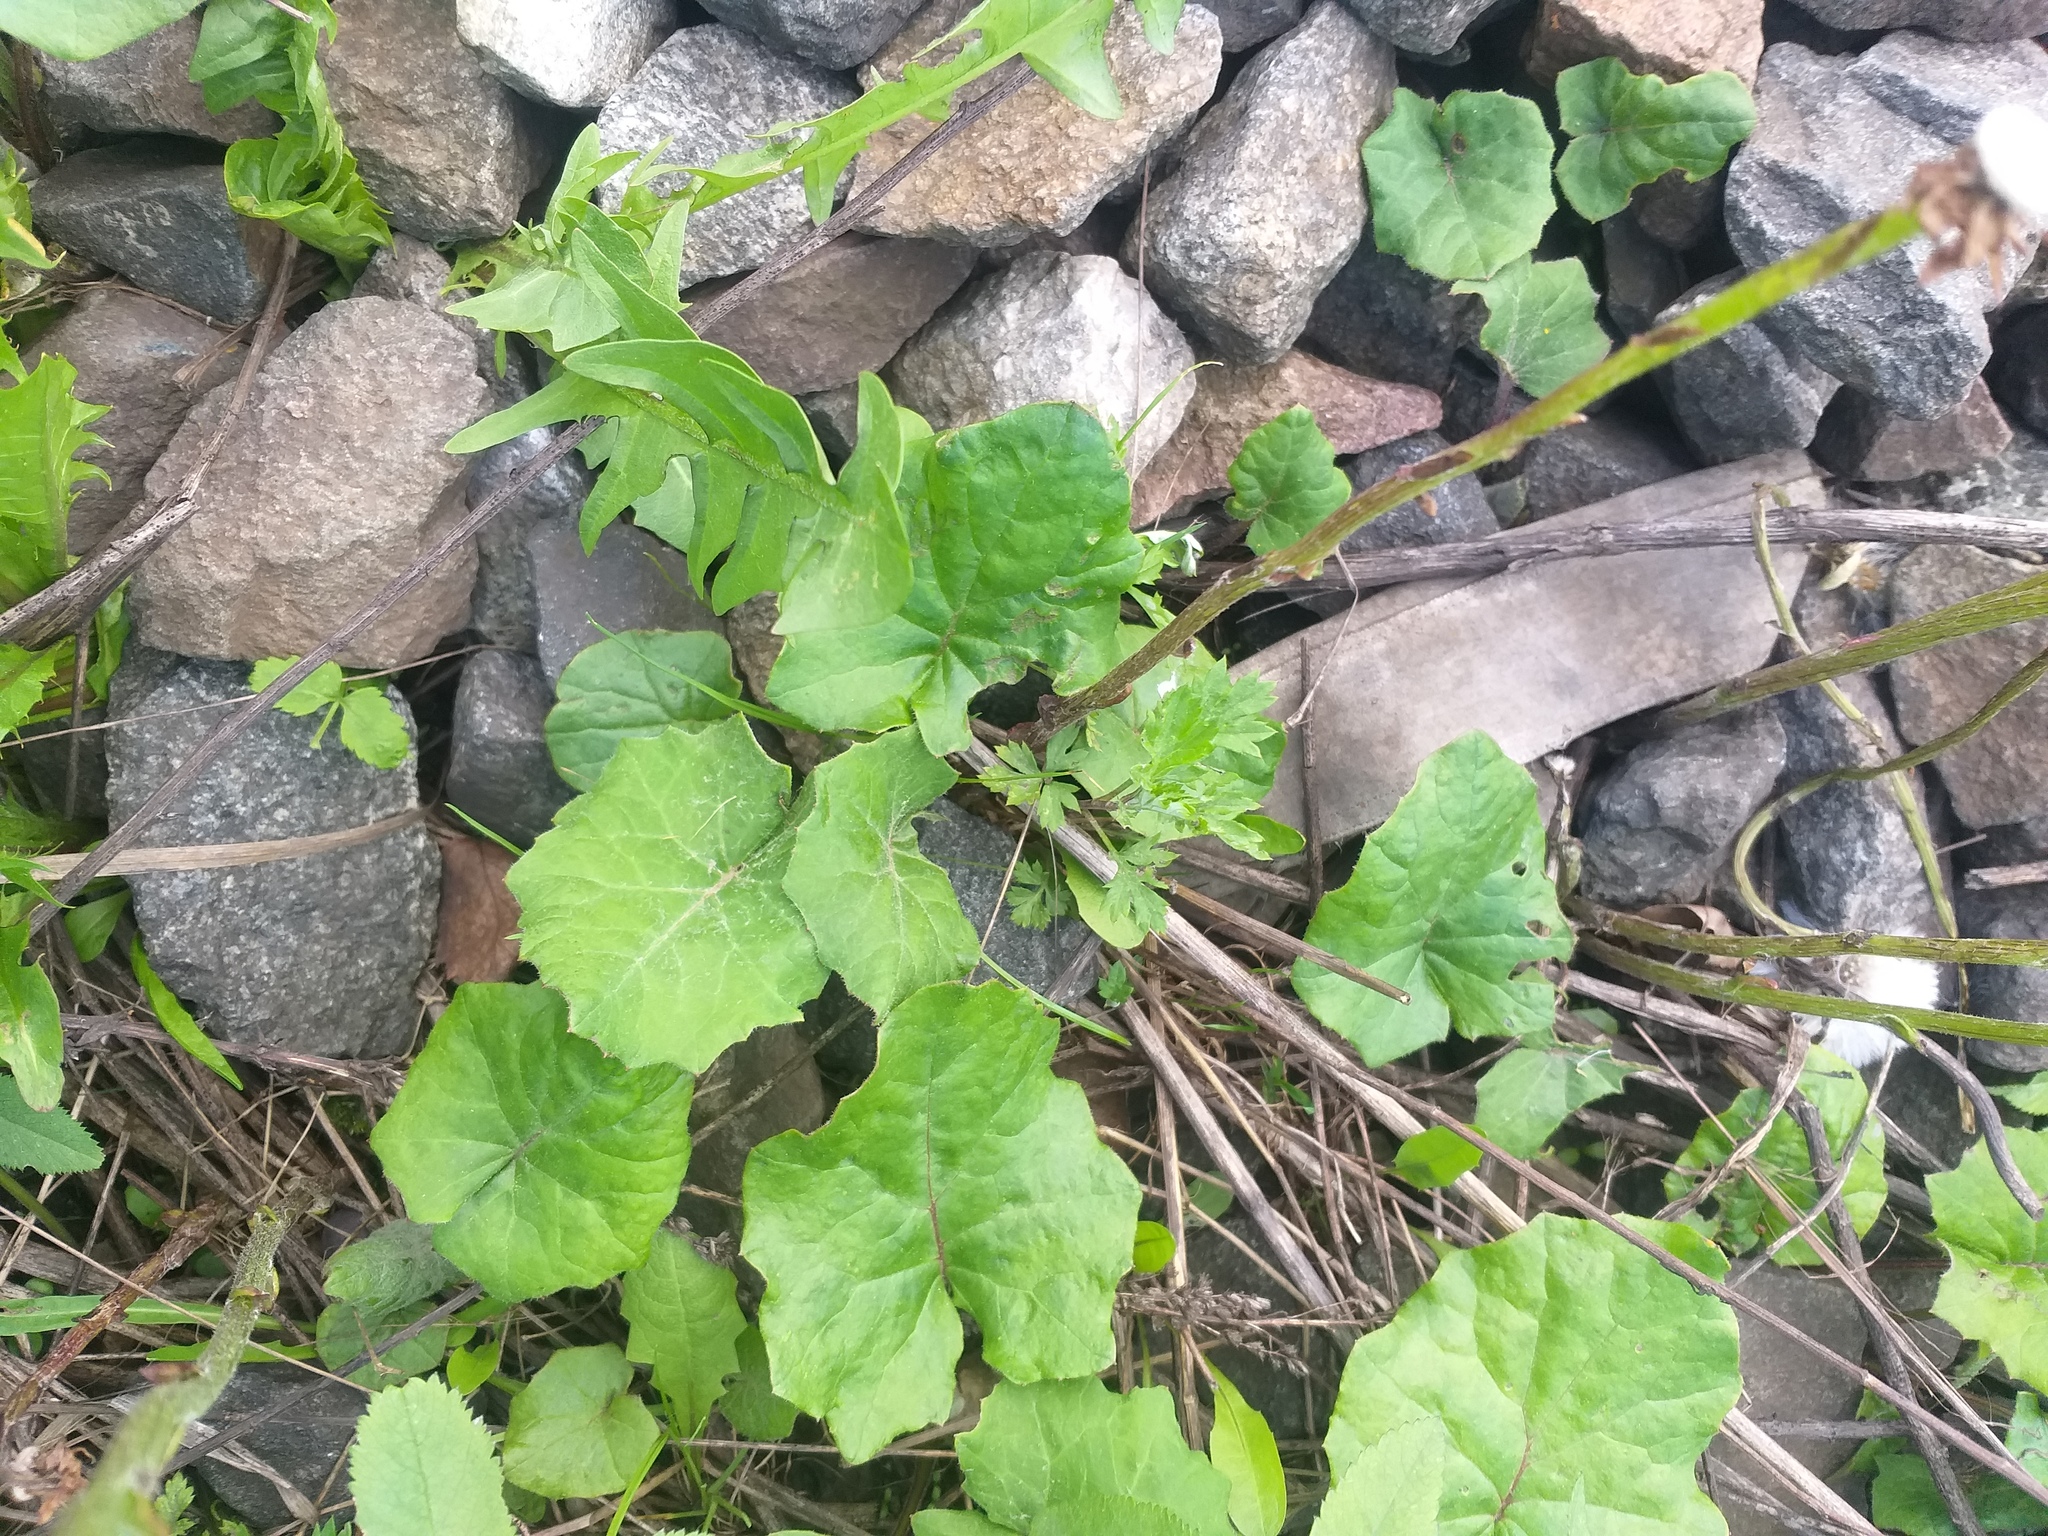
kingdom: Plantae
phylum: Tracheophyta
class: Magnoliopsida
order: Asterales
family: Asteraceae
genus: Tussilago
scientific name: Tussilago farfara
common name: Coltsfoot
